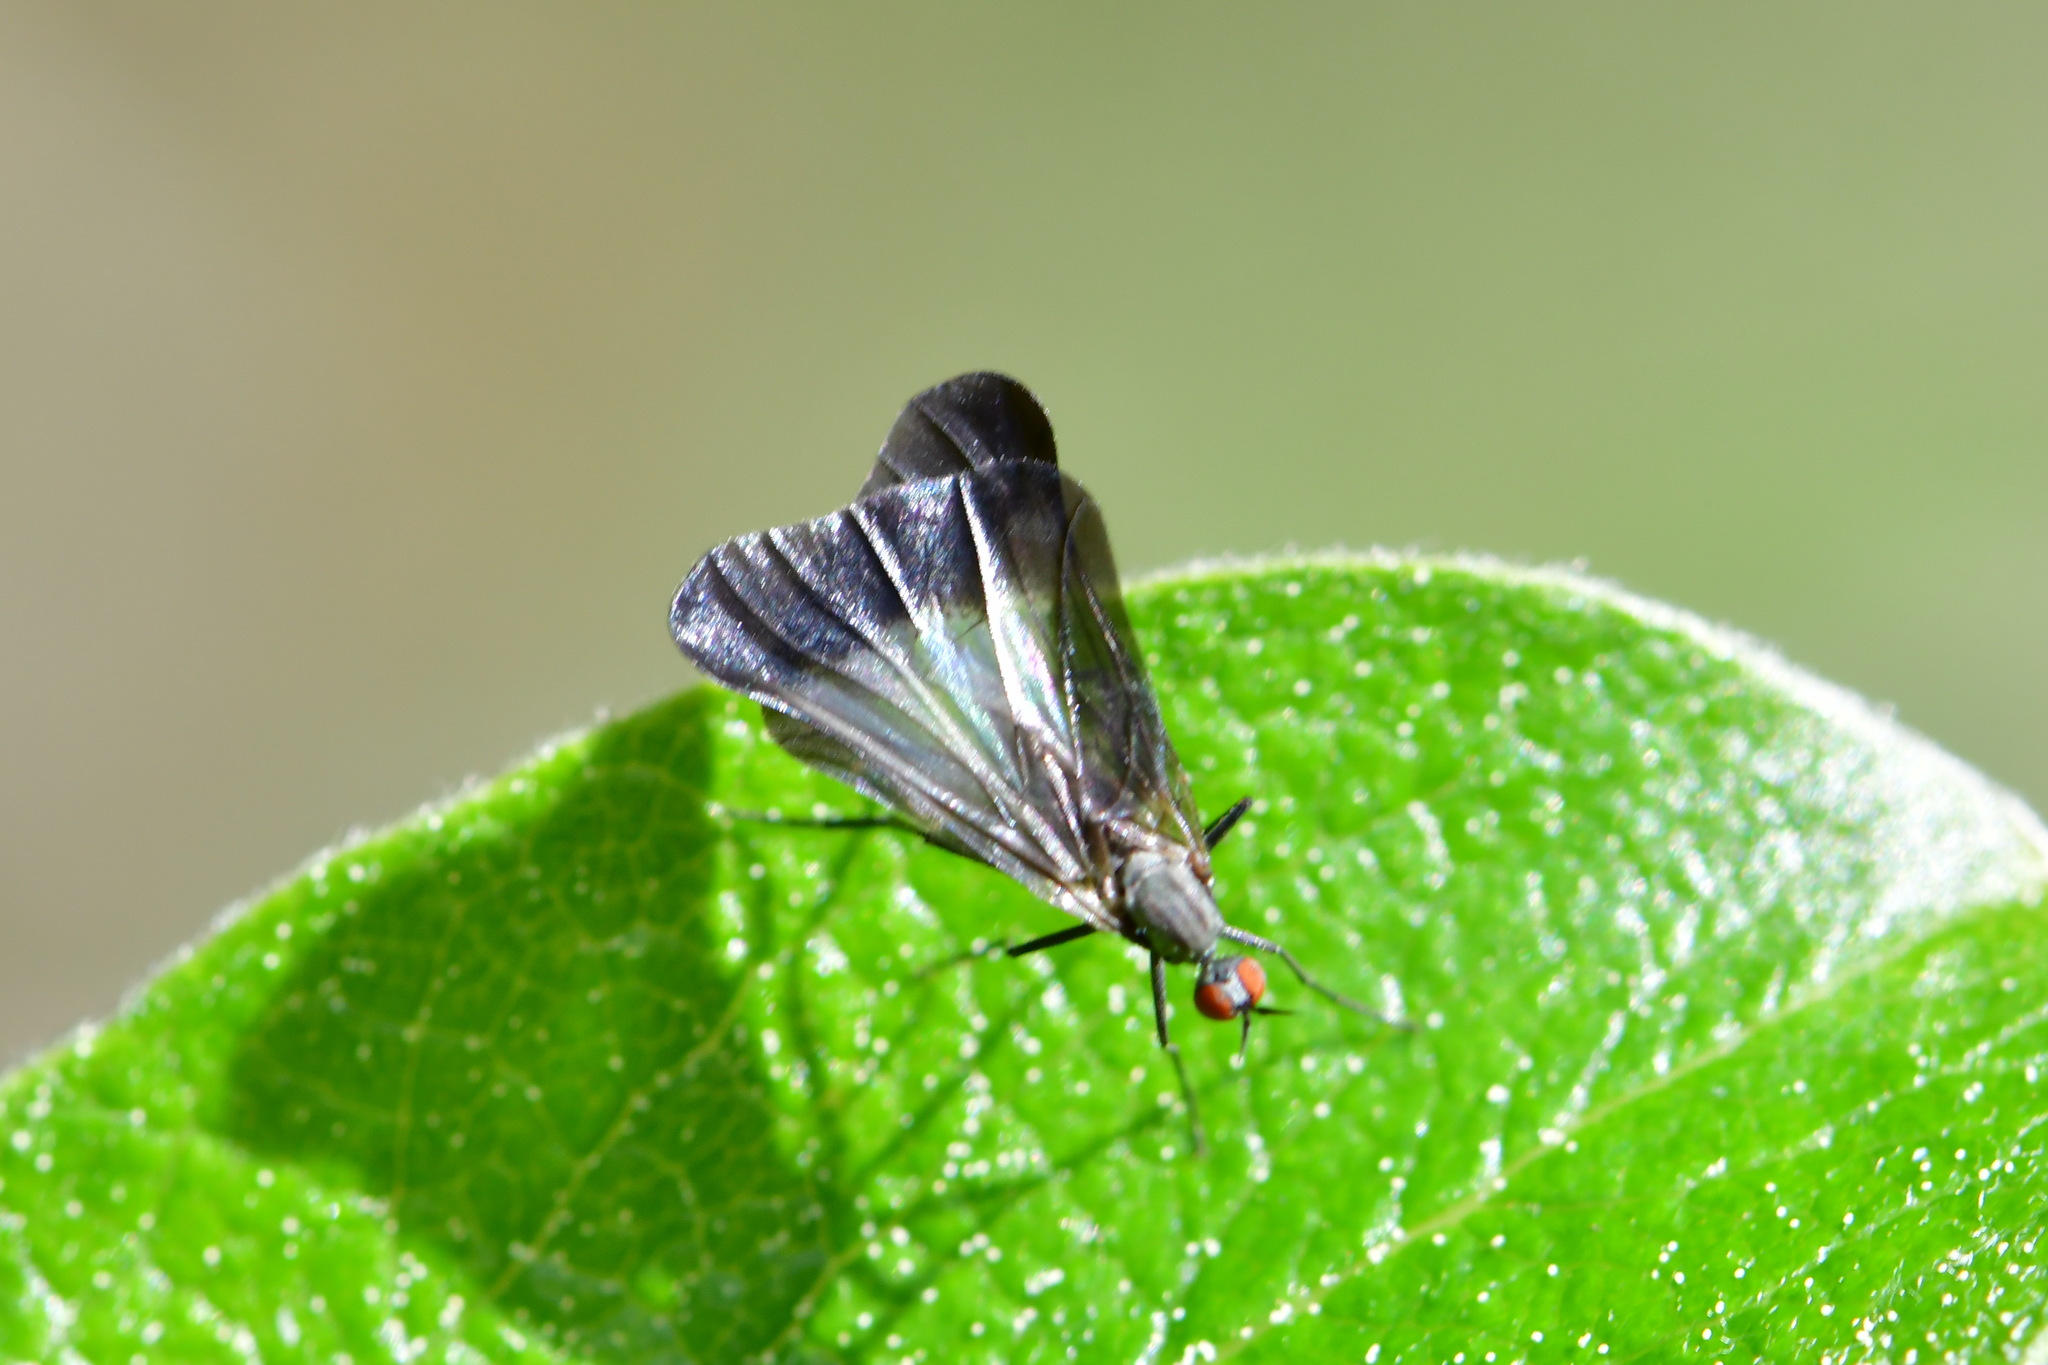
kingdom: Animalia
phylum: Arthropoda
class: Insecta
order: Diptera
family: Empididae
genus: Rhamphomyia
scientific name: Rhamphomyia marginata
